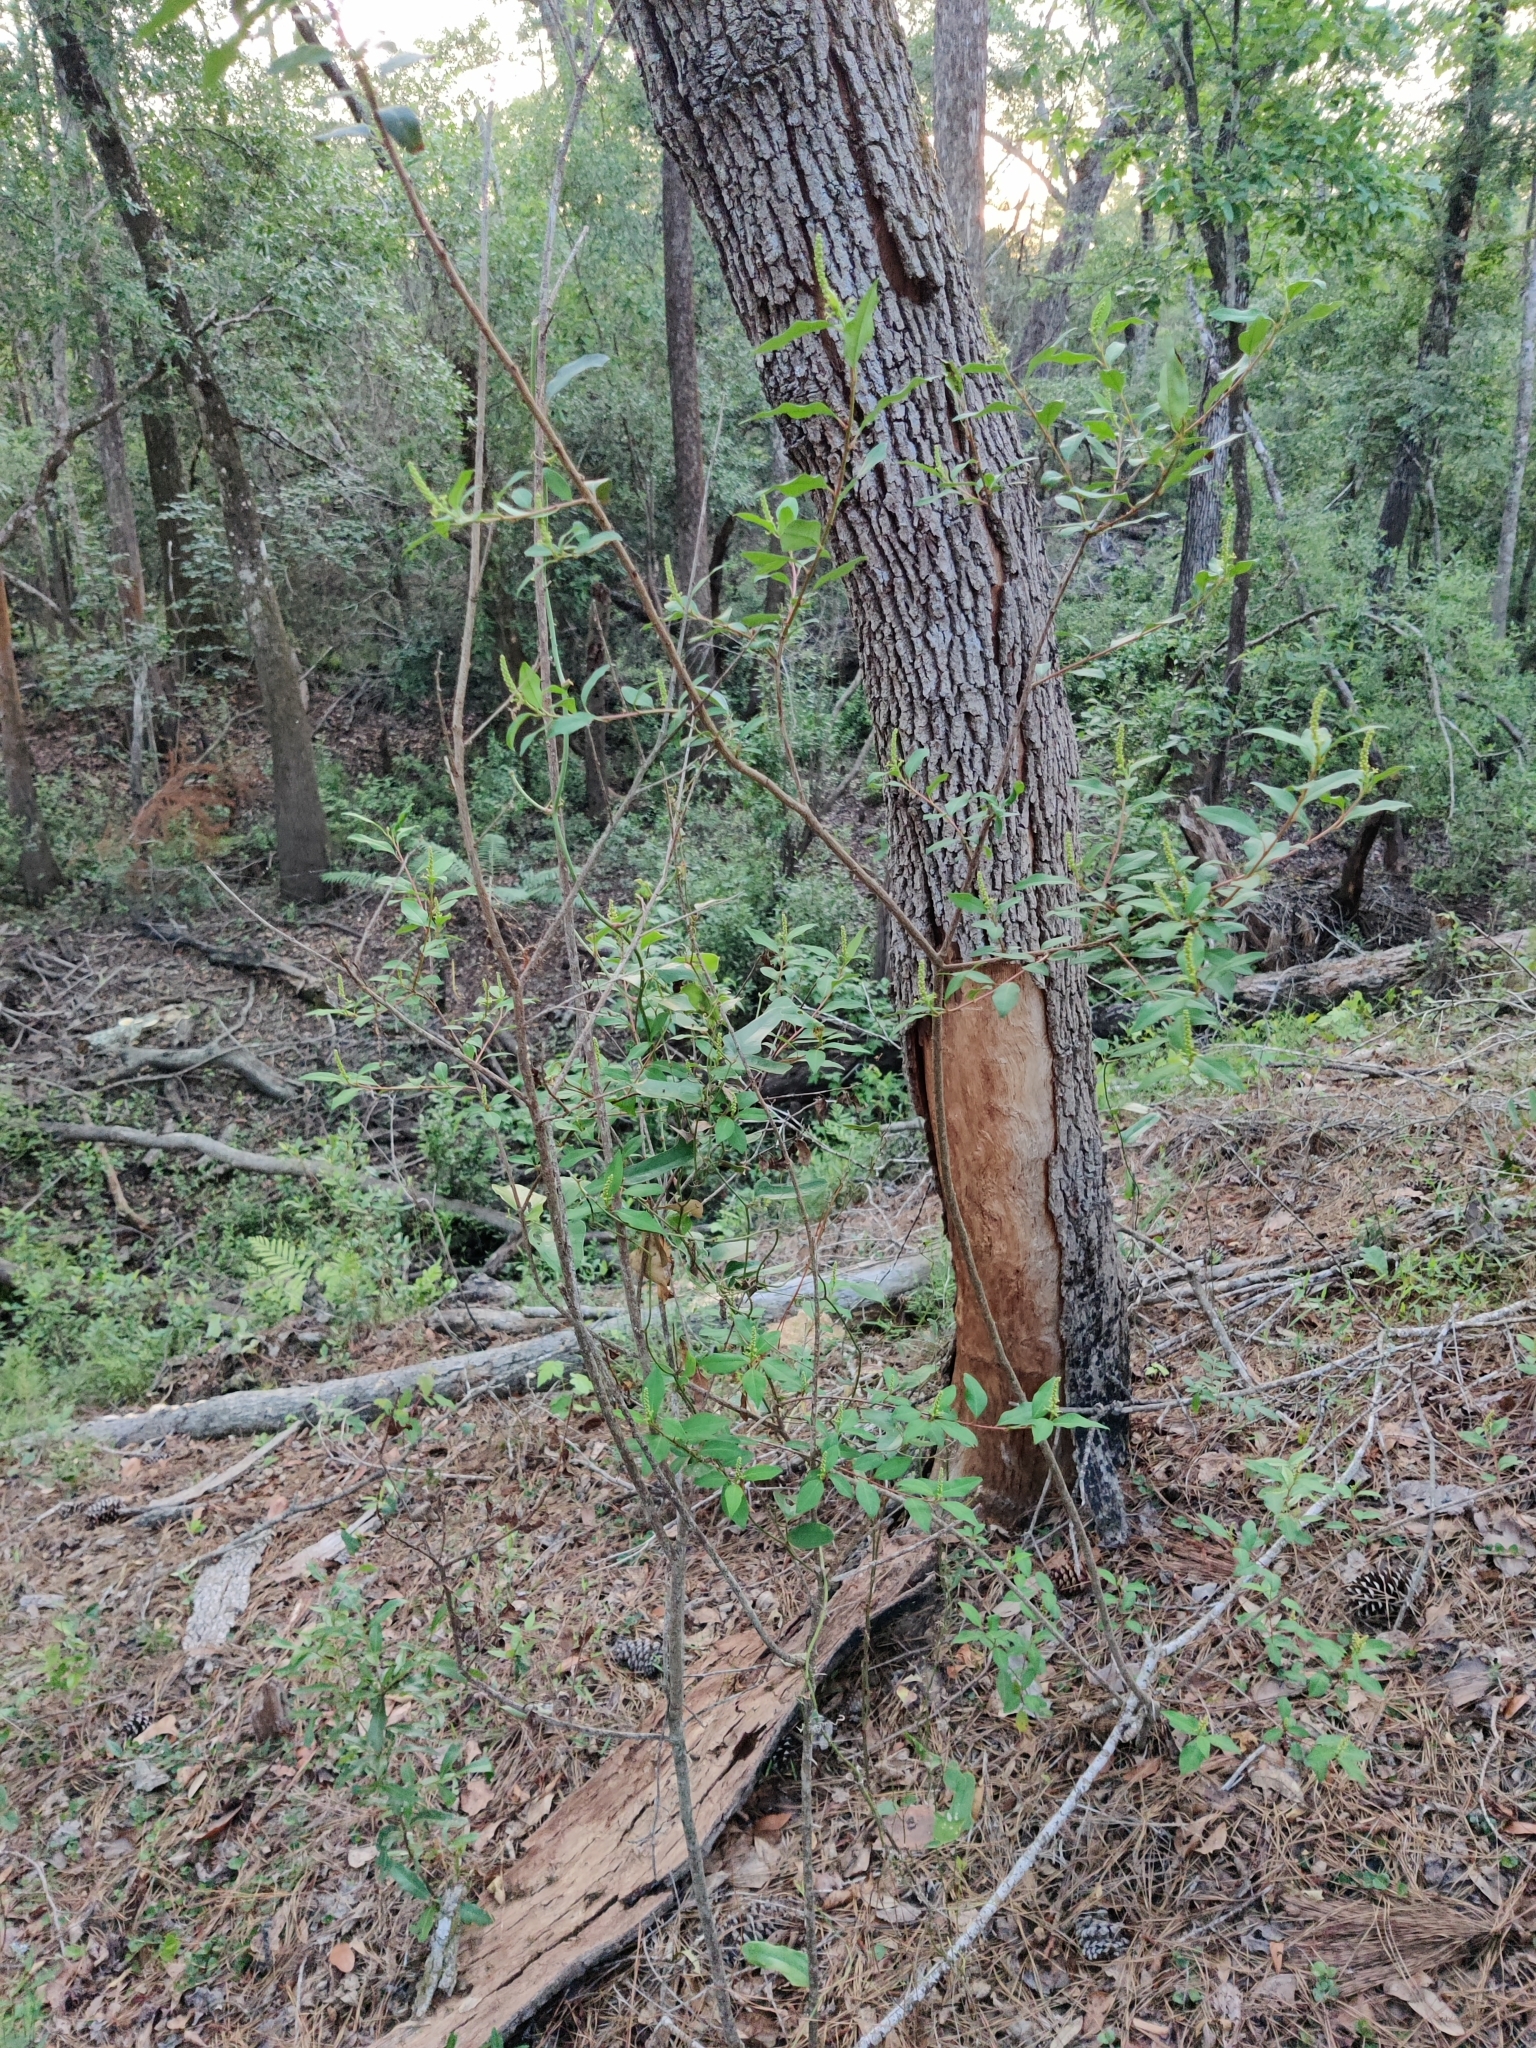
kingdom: Plantae
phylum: Tracheophyta
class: Magnoliopsida
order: Malpighiales
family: Euphorbiaceae
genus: Ditrysinia
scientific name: Ditrysinia fruticosa
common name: Gulf sebastian-bush
